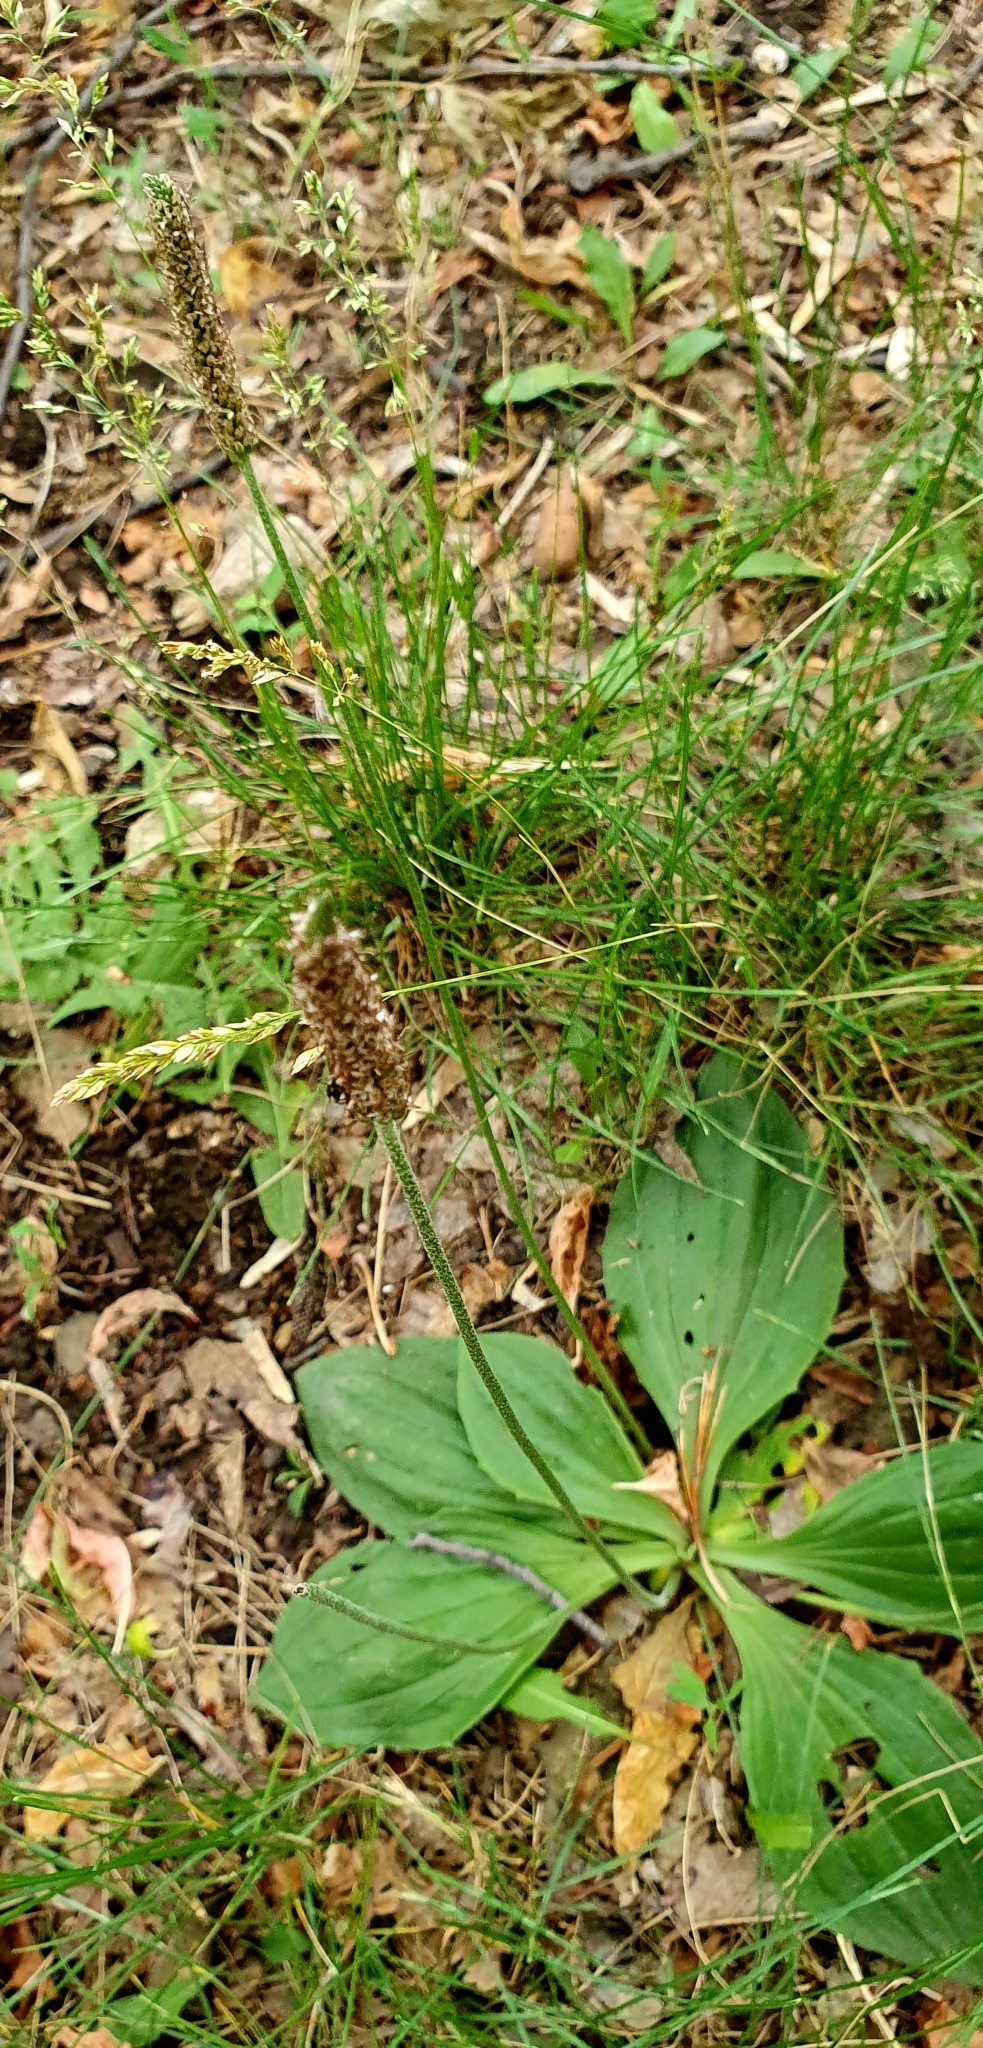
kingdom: Plantae
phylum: Tracheophyta
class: Magnoliopsida
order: Lamiales
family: Plantaginaceae
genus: Plantago
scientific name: Plantago media
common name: Hoary plantain
